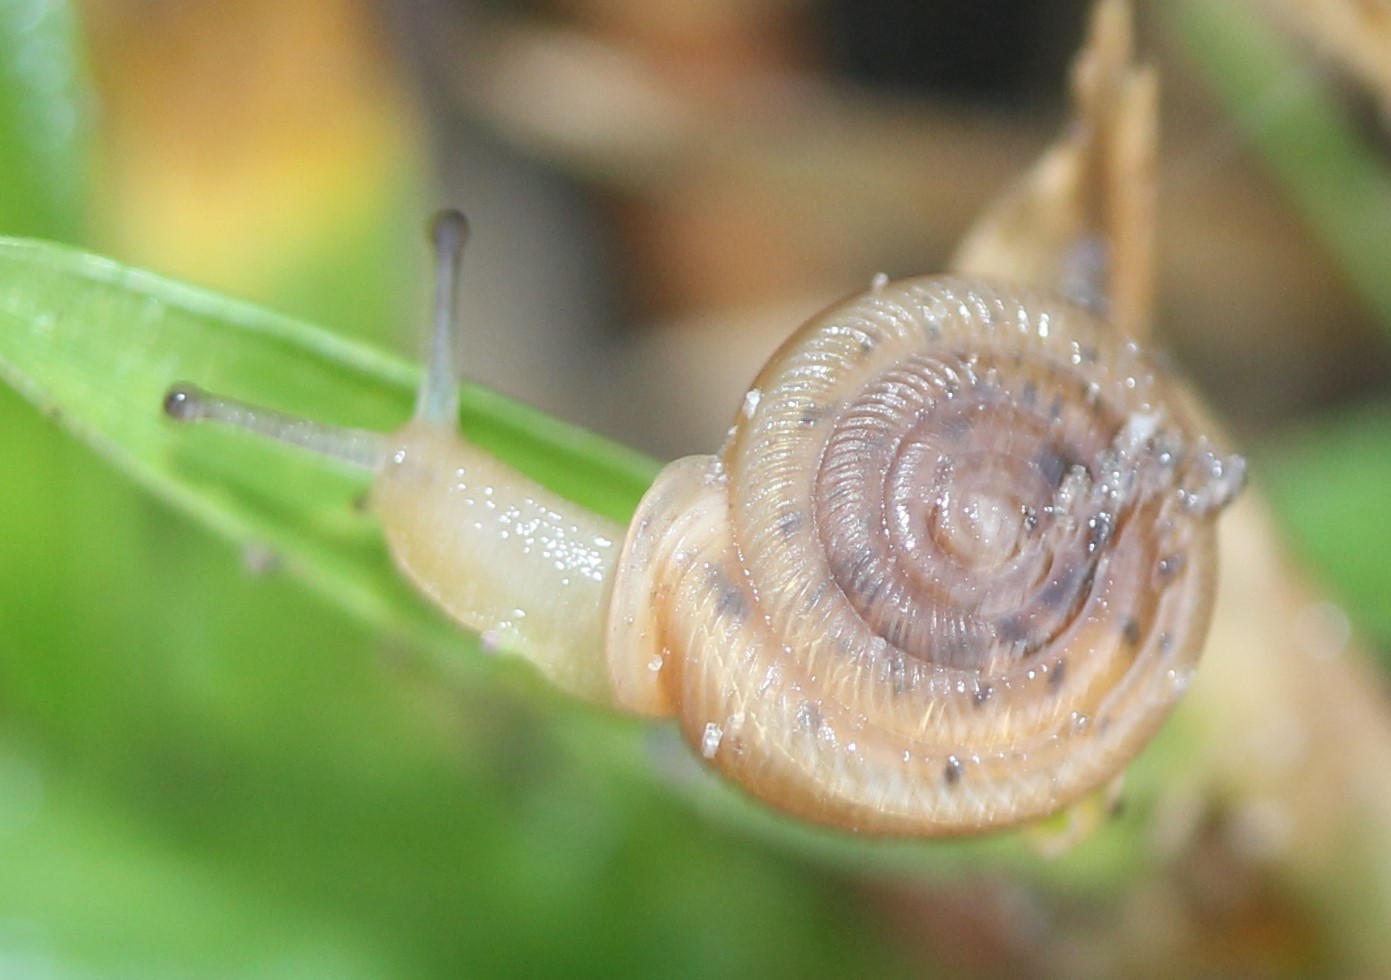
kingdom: Animalia
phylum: Mollusca
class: Gastropoda
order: Stylommatophora
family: Polygyridae
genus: Polygyra
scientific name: Polygyra cereolus
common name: Southern flatcone snail
